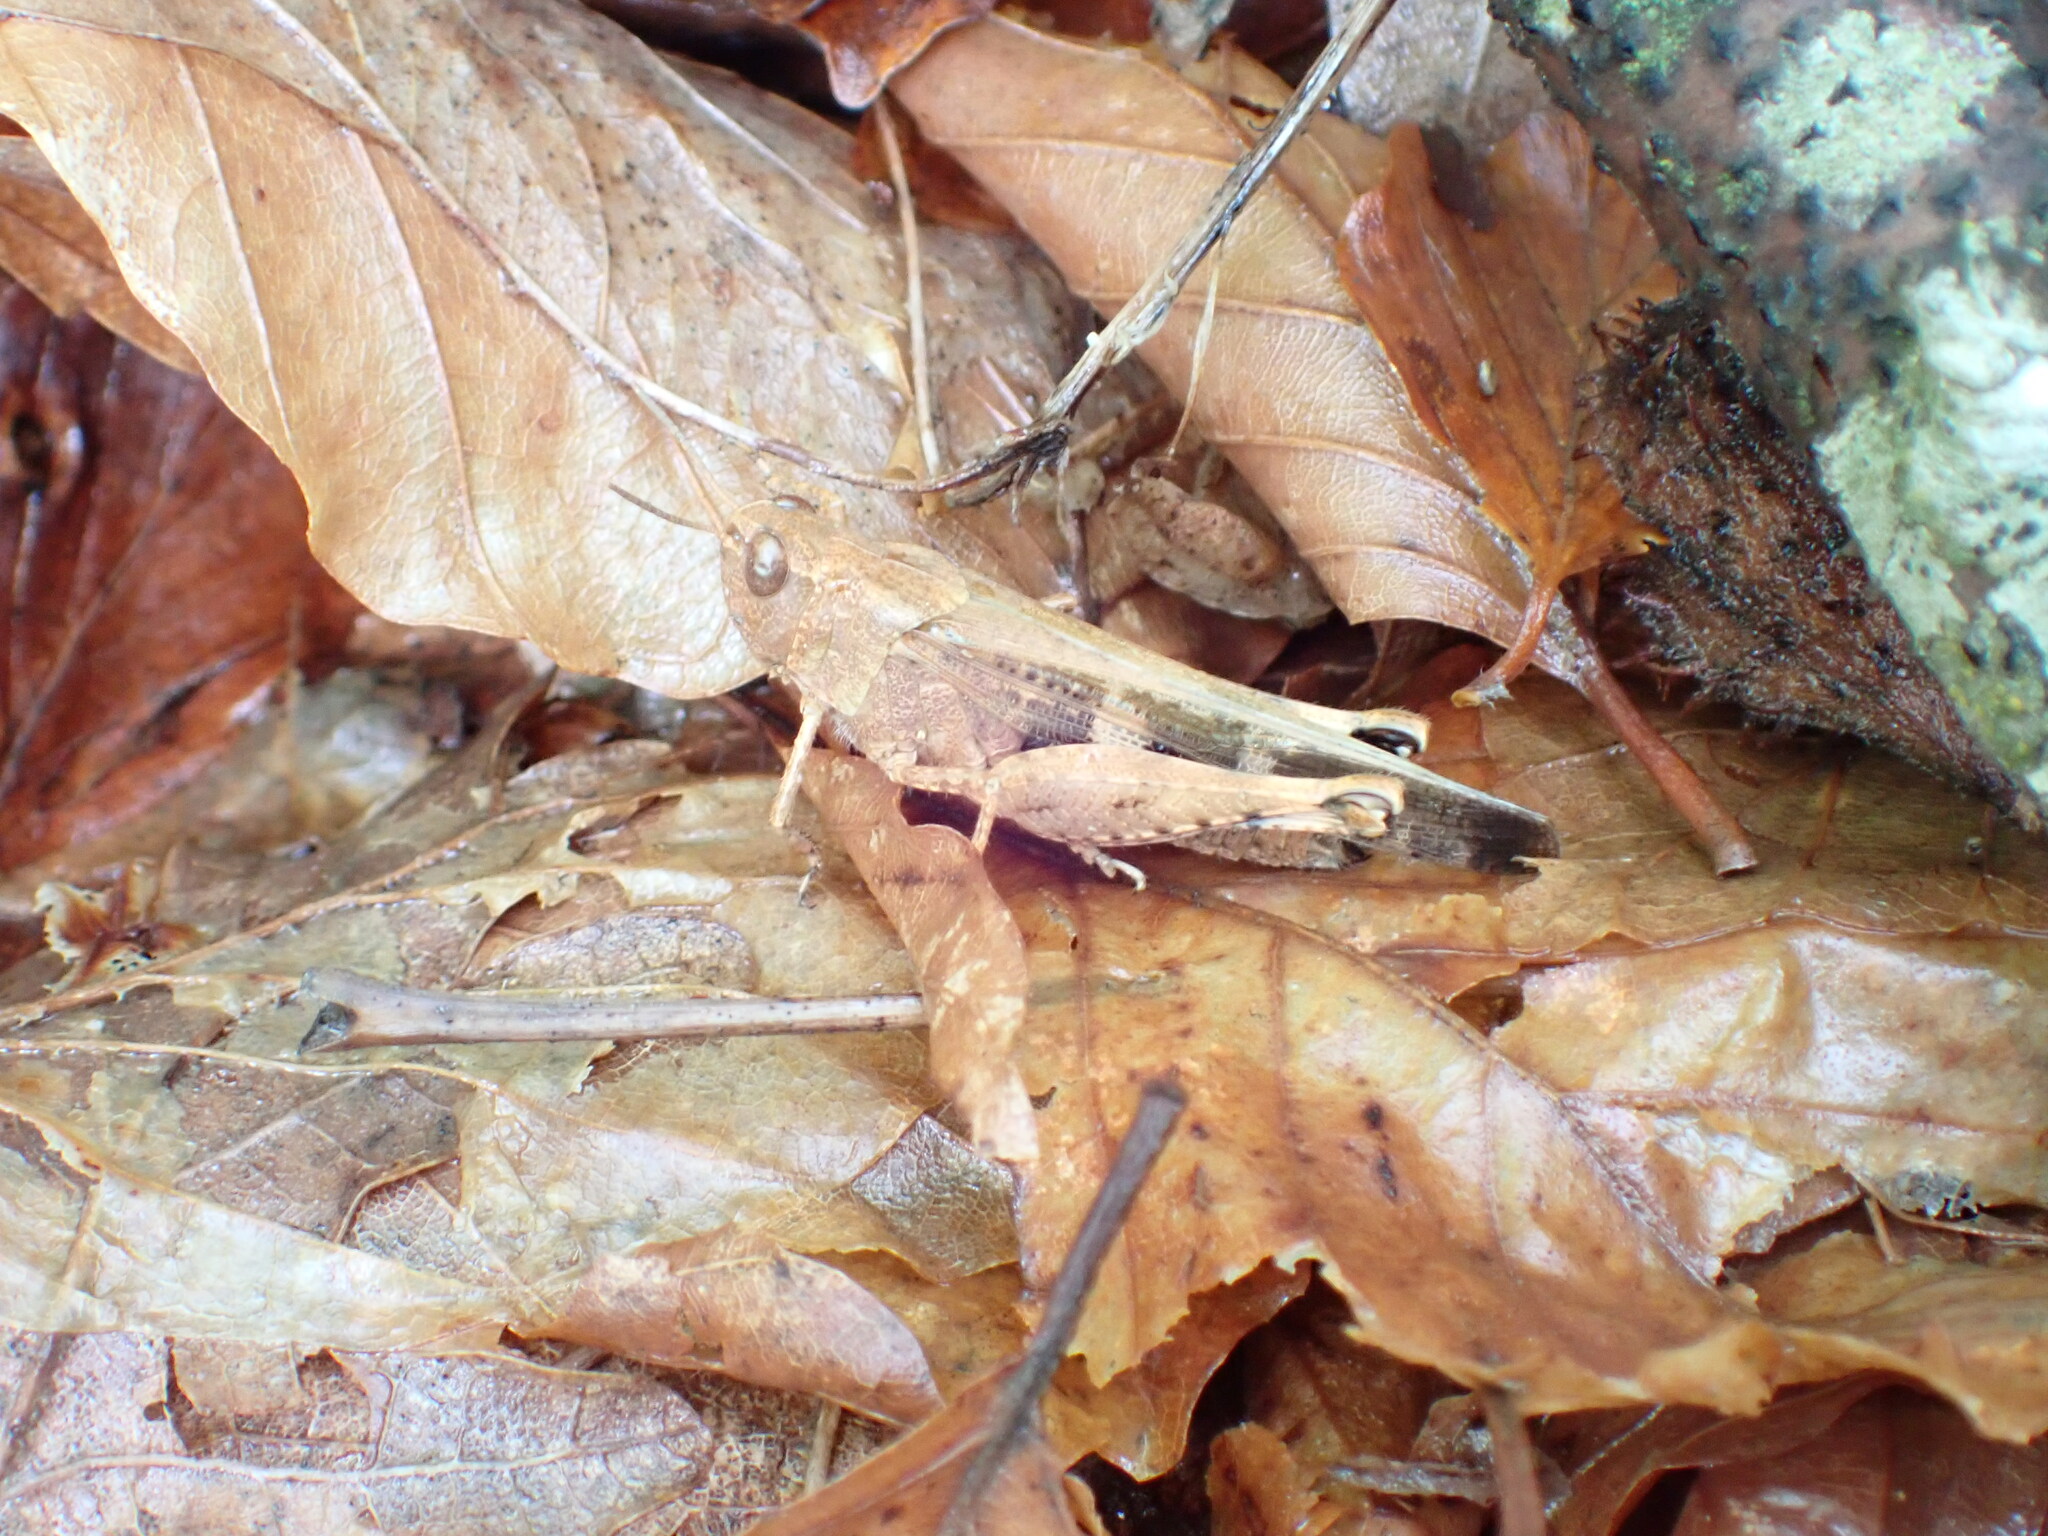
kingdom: Animalia
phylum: Arthropoda
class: Insecta
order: Orthoptera
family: Acrididae
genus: Aiolopus
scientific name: Aiolopus strepens
